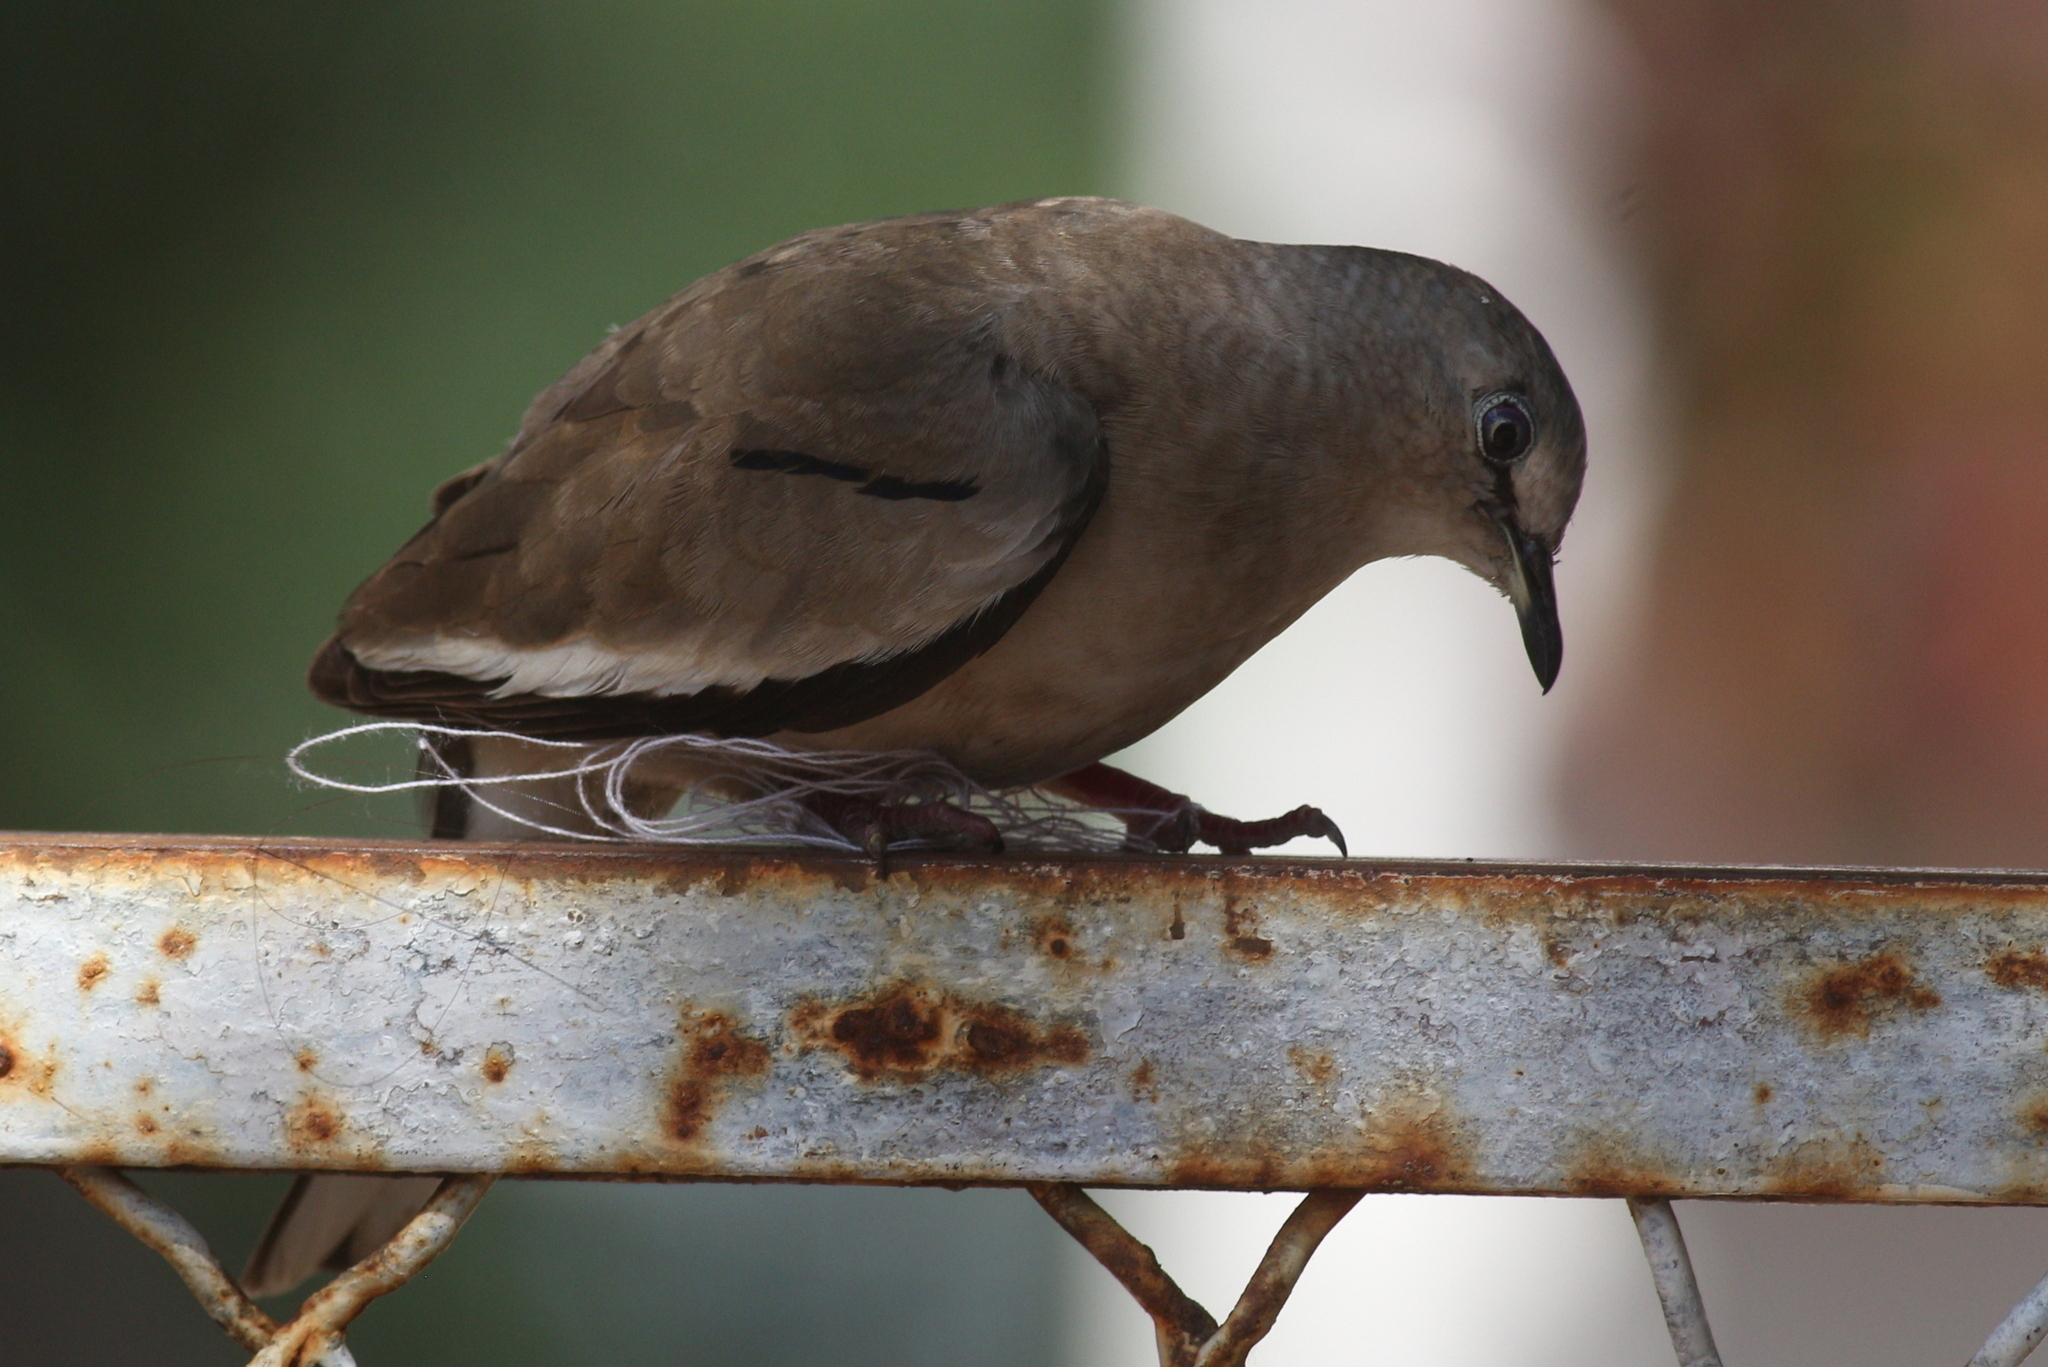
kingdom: Animalia
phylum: Chordata
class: Aves
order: Columbiformes
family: Columbidae
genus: Columbina
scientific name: Columbina picui
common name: Picui ground dove
